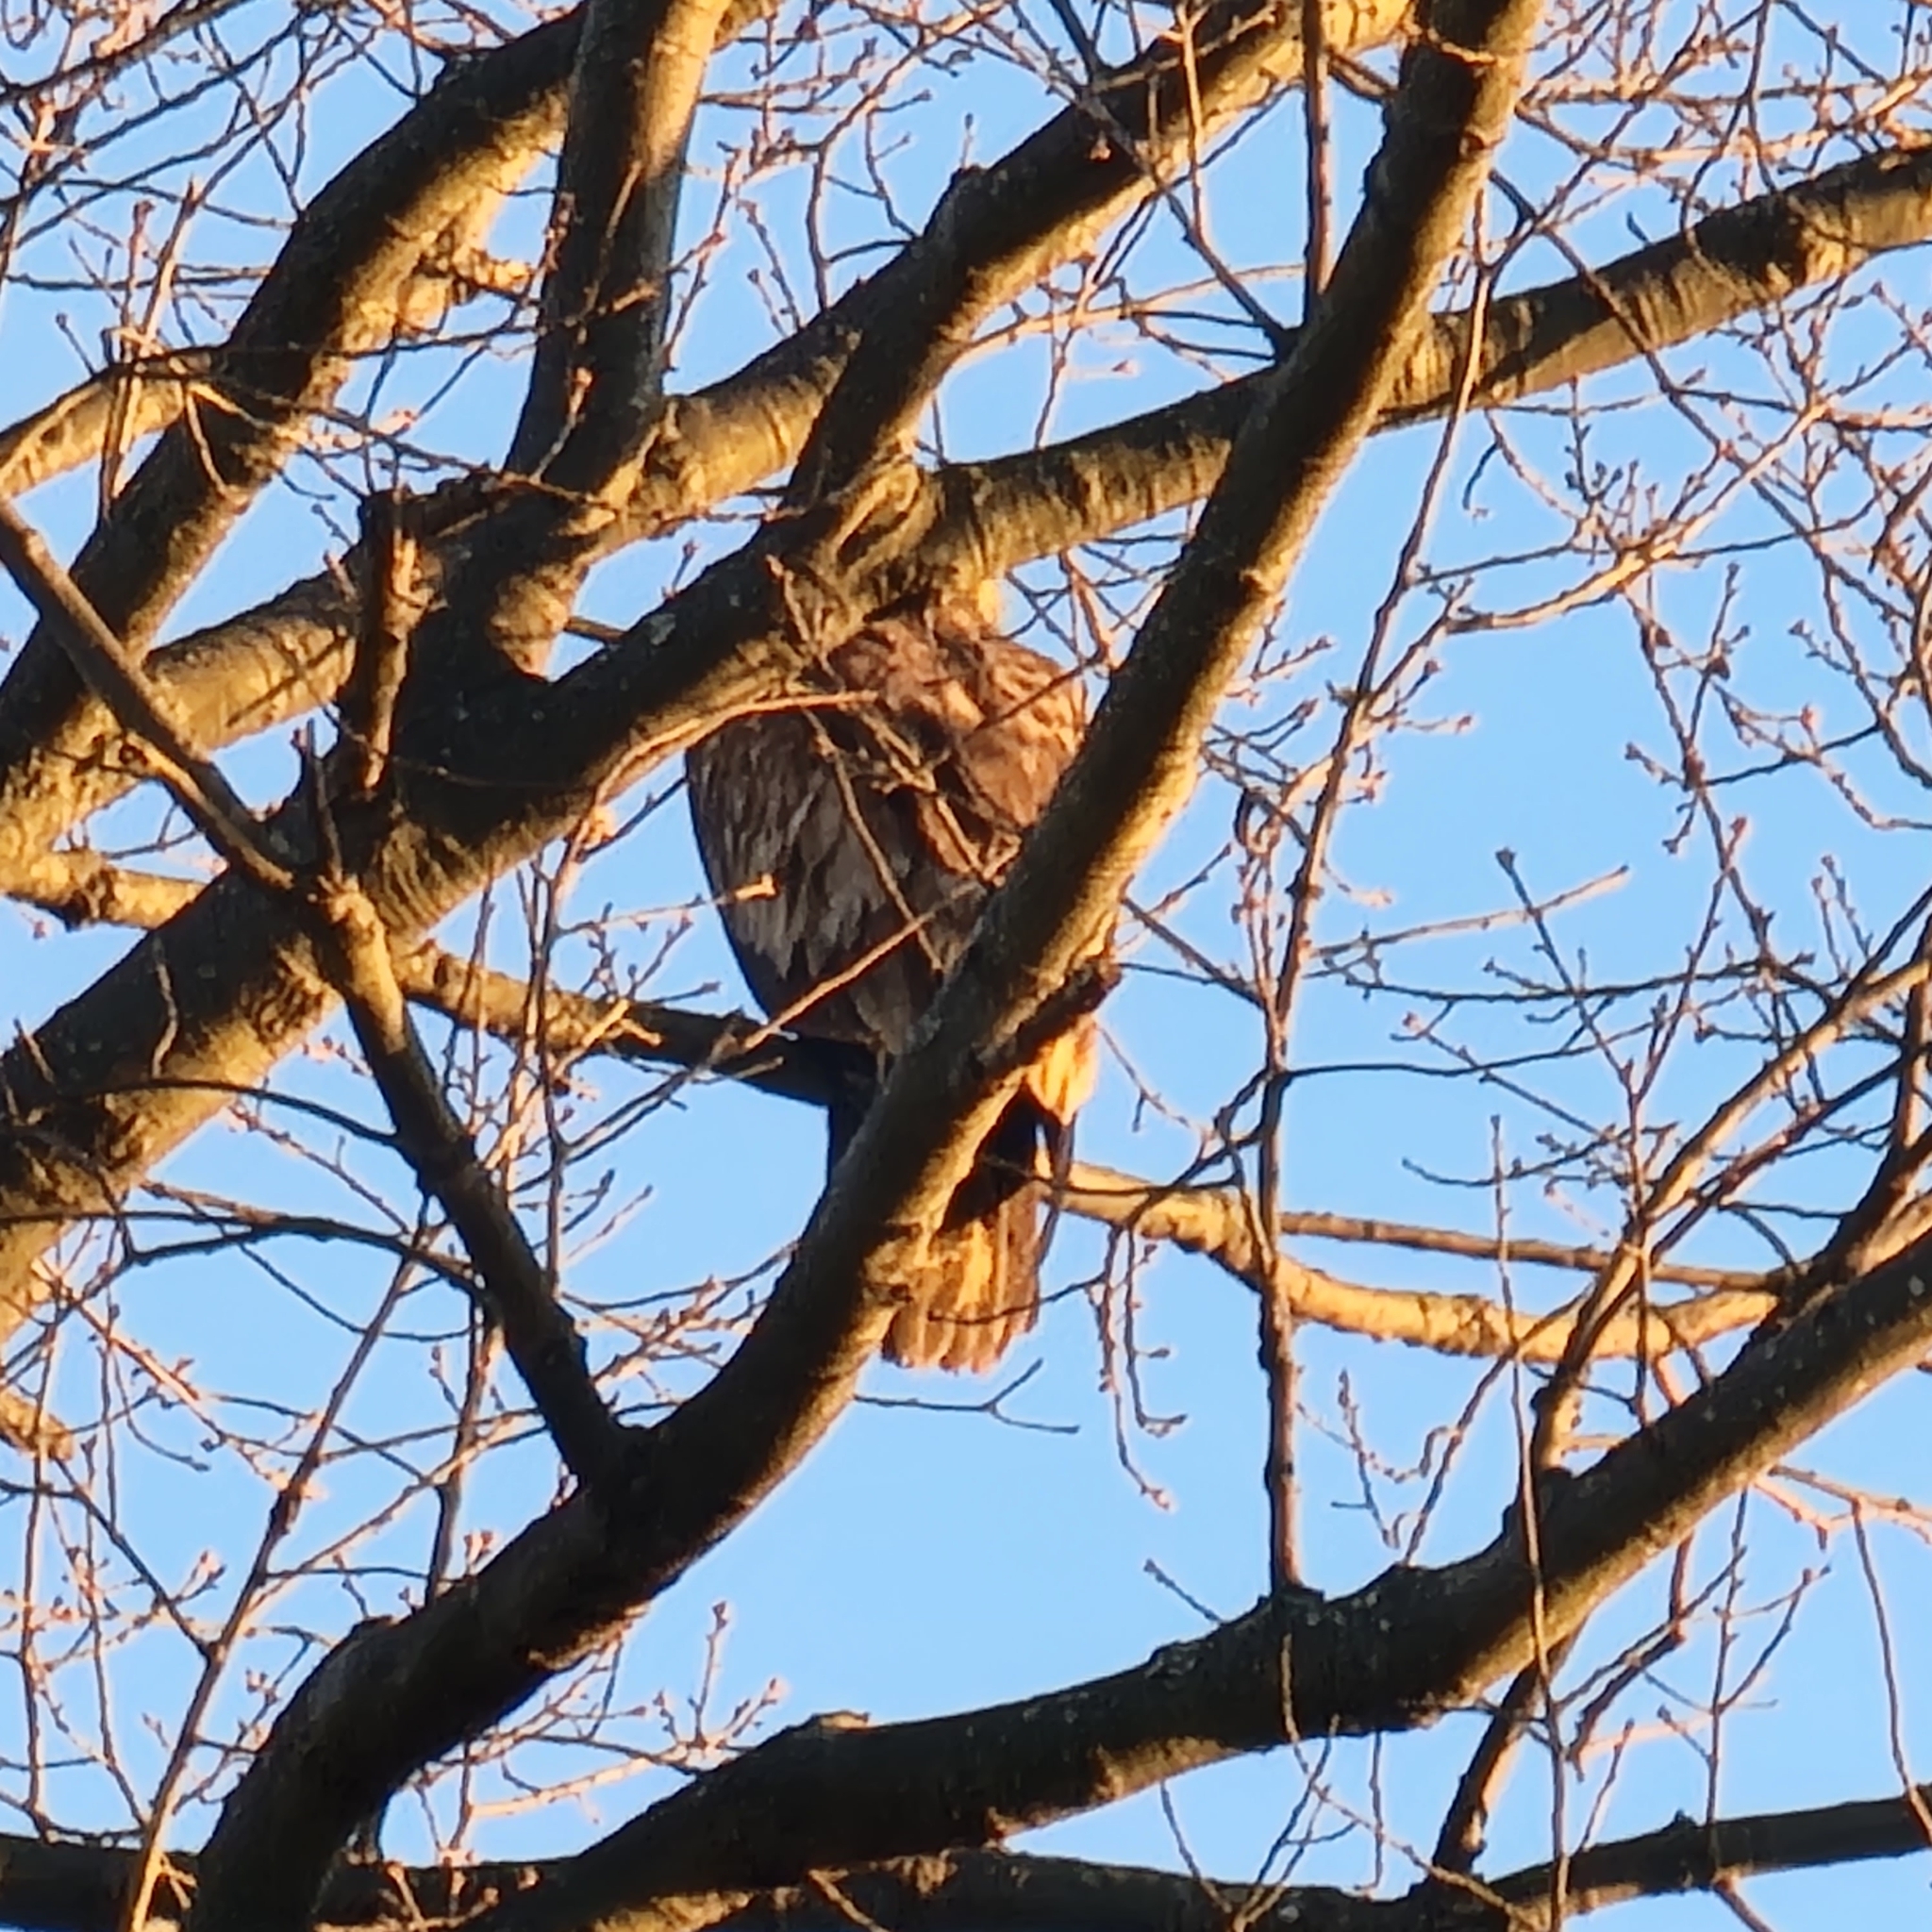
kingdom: Animalia
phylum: Chordata
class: Aves
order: Accipitriformes
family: Accipitridae
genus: Haliaeetus
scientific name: Haliaeetus leucocephalus
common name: Bald eagle
